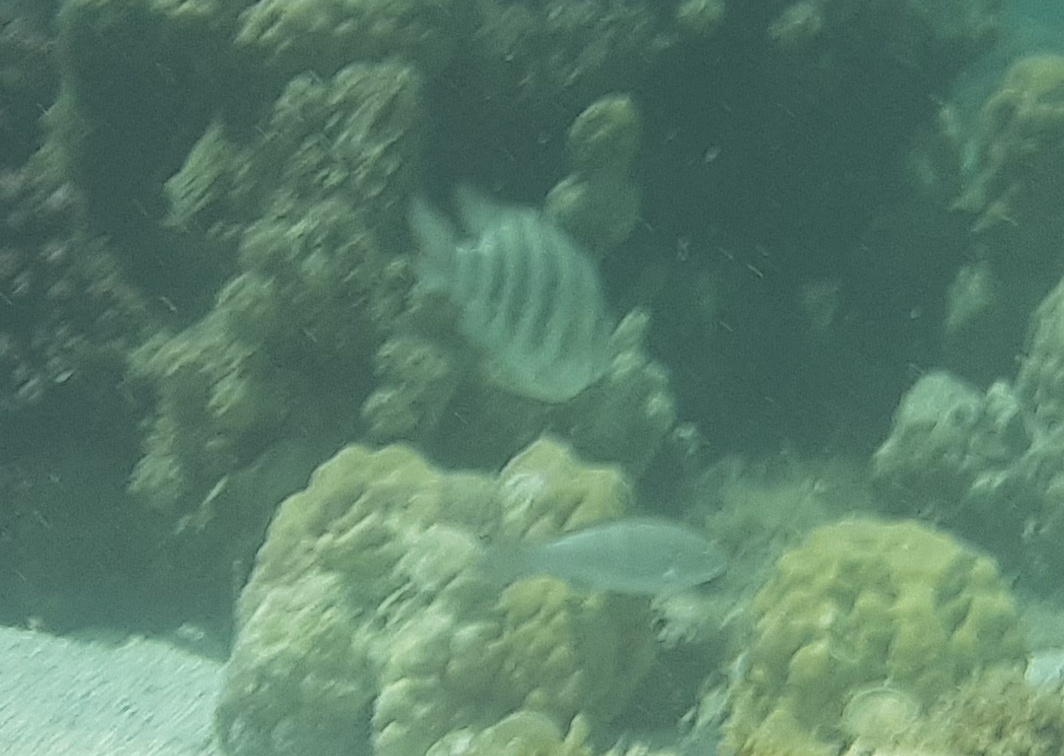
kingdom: Animalia
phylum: Chordata
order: Perciformes
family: Pomacentridae
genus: Abudefduf
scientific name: Abudefduf septemfasciatus
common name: Banded sergeant
